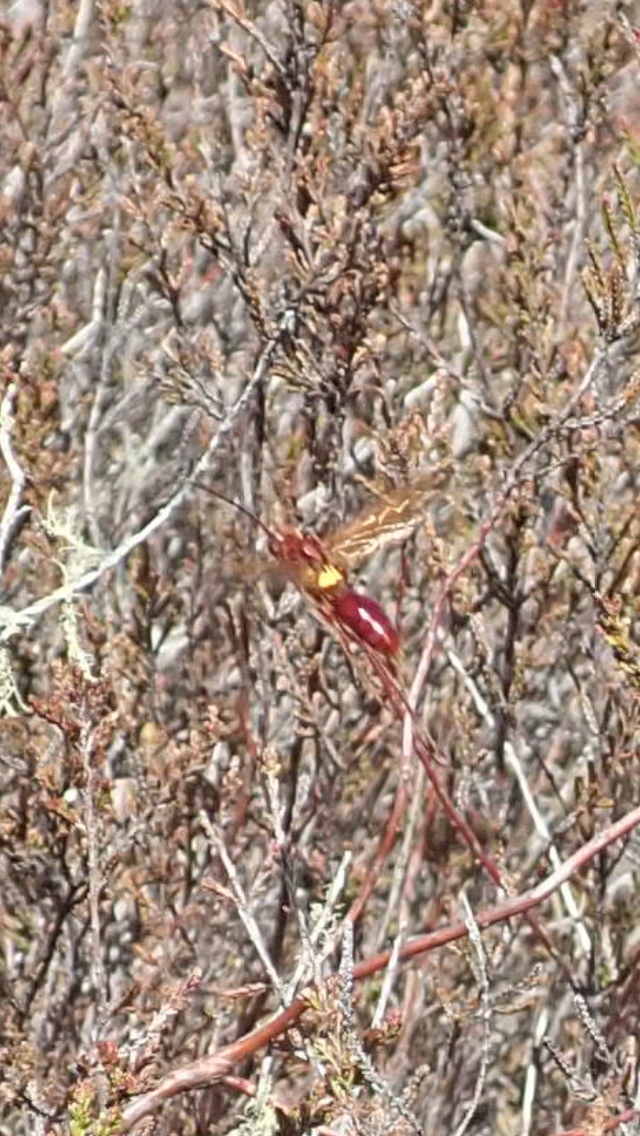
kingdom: Animalia
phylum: Arthropoda
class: Insecta
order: Hymenoptera
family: Pompilidae
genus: Sphictostethus
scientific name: Sphictostethus nitidus
